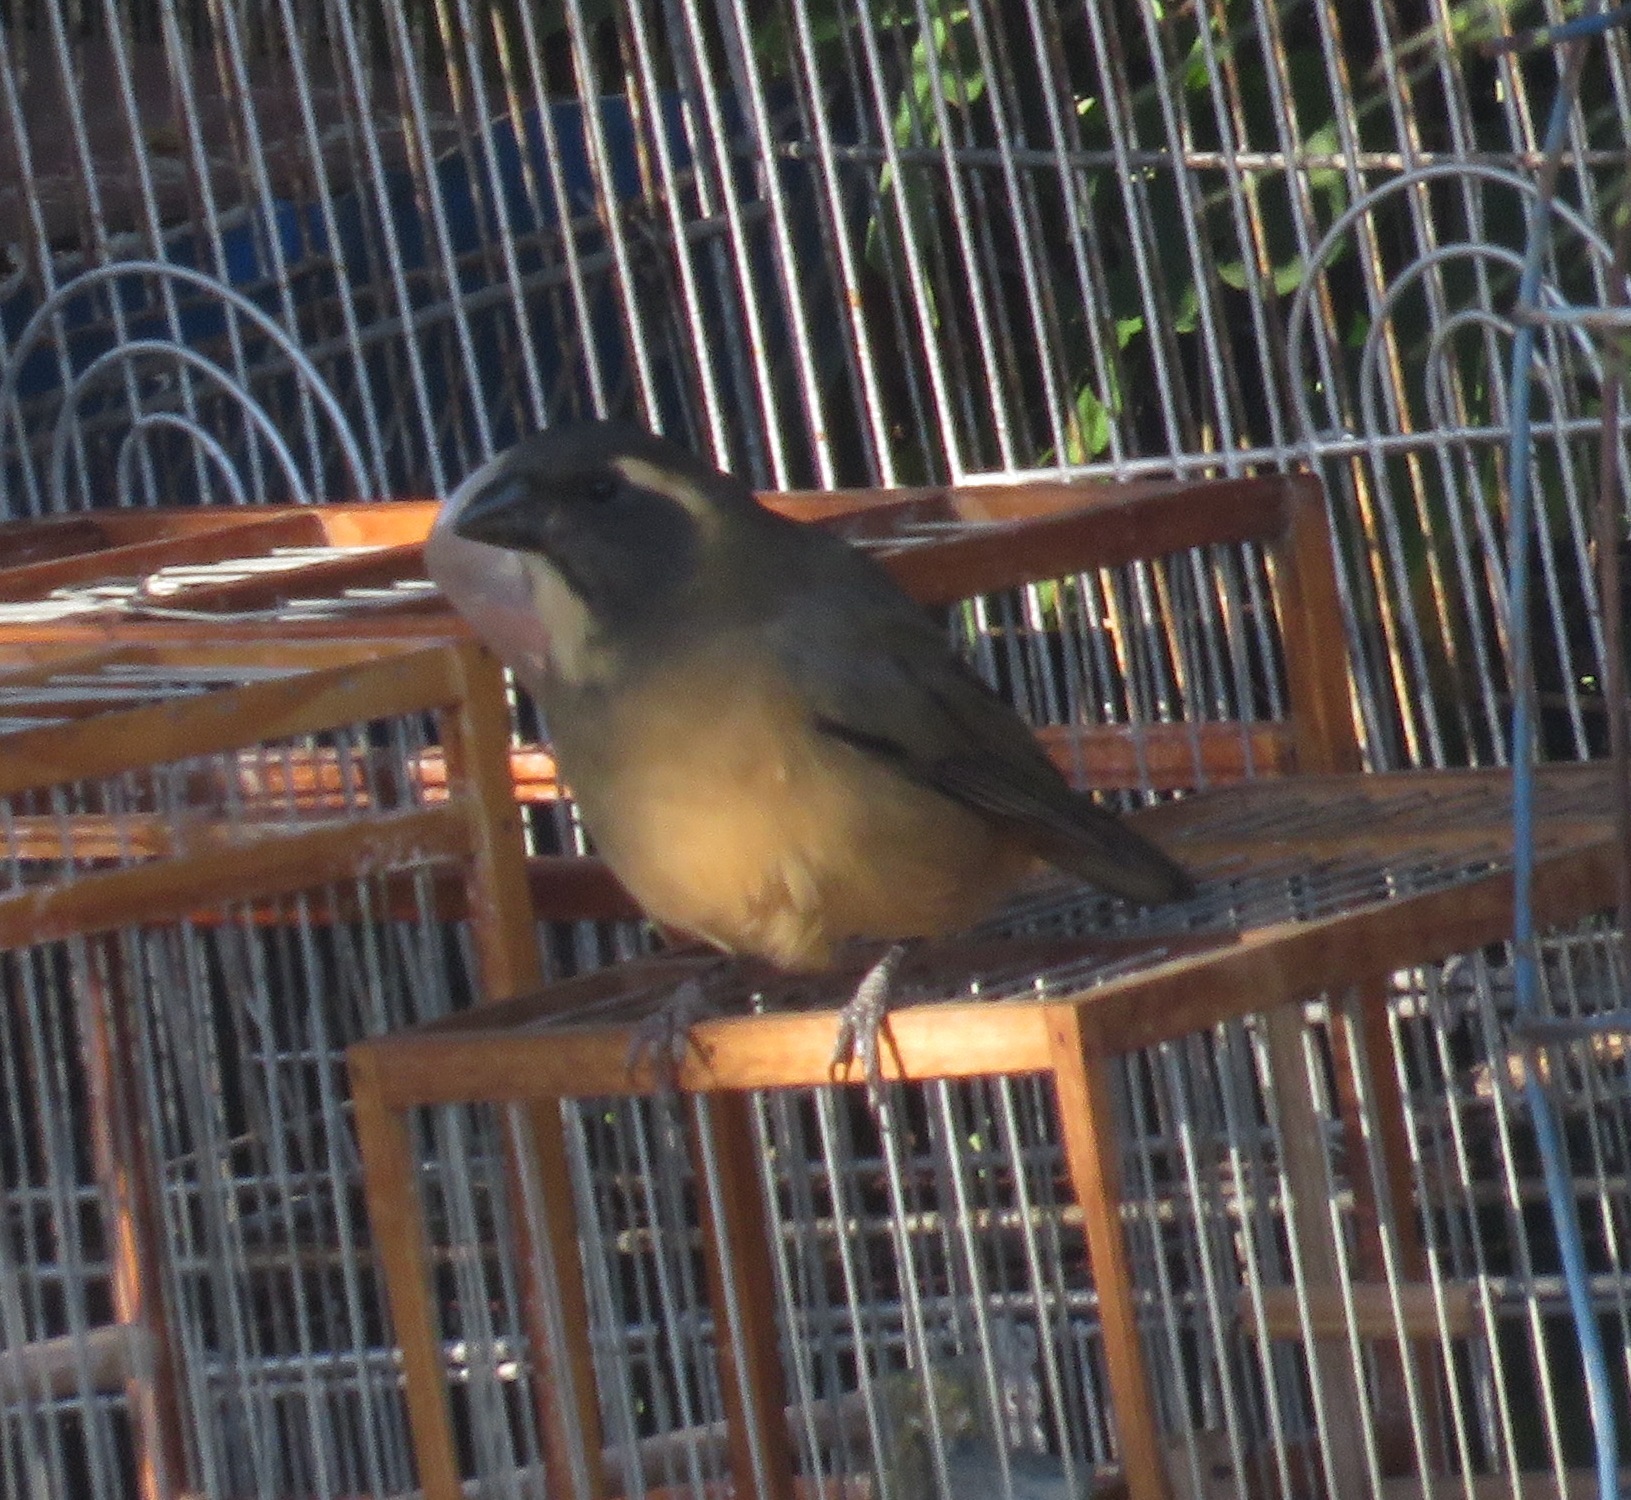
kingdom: Animalia
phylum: Chordata
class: Aves
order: Passeriformes
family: Thraupidae
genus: Saltator
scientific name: Saltator aurantiirostris
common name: Golden-billed saltator
